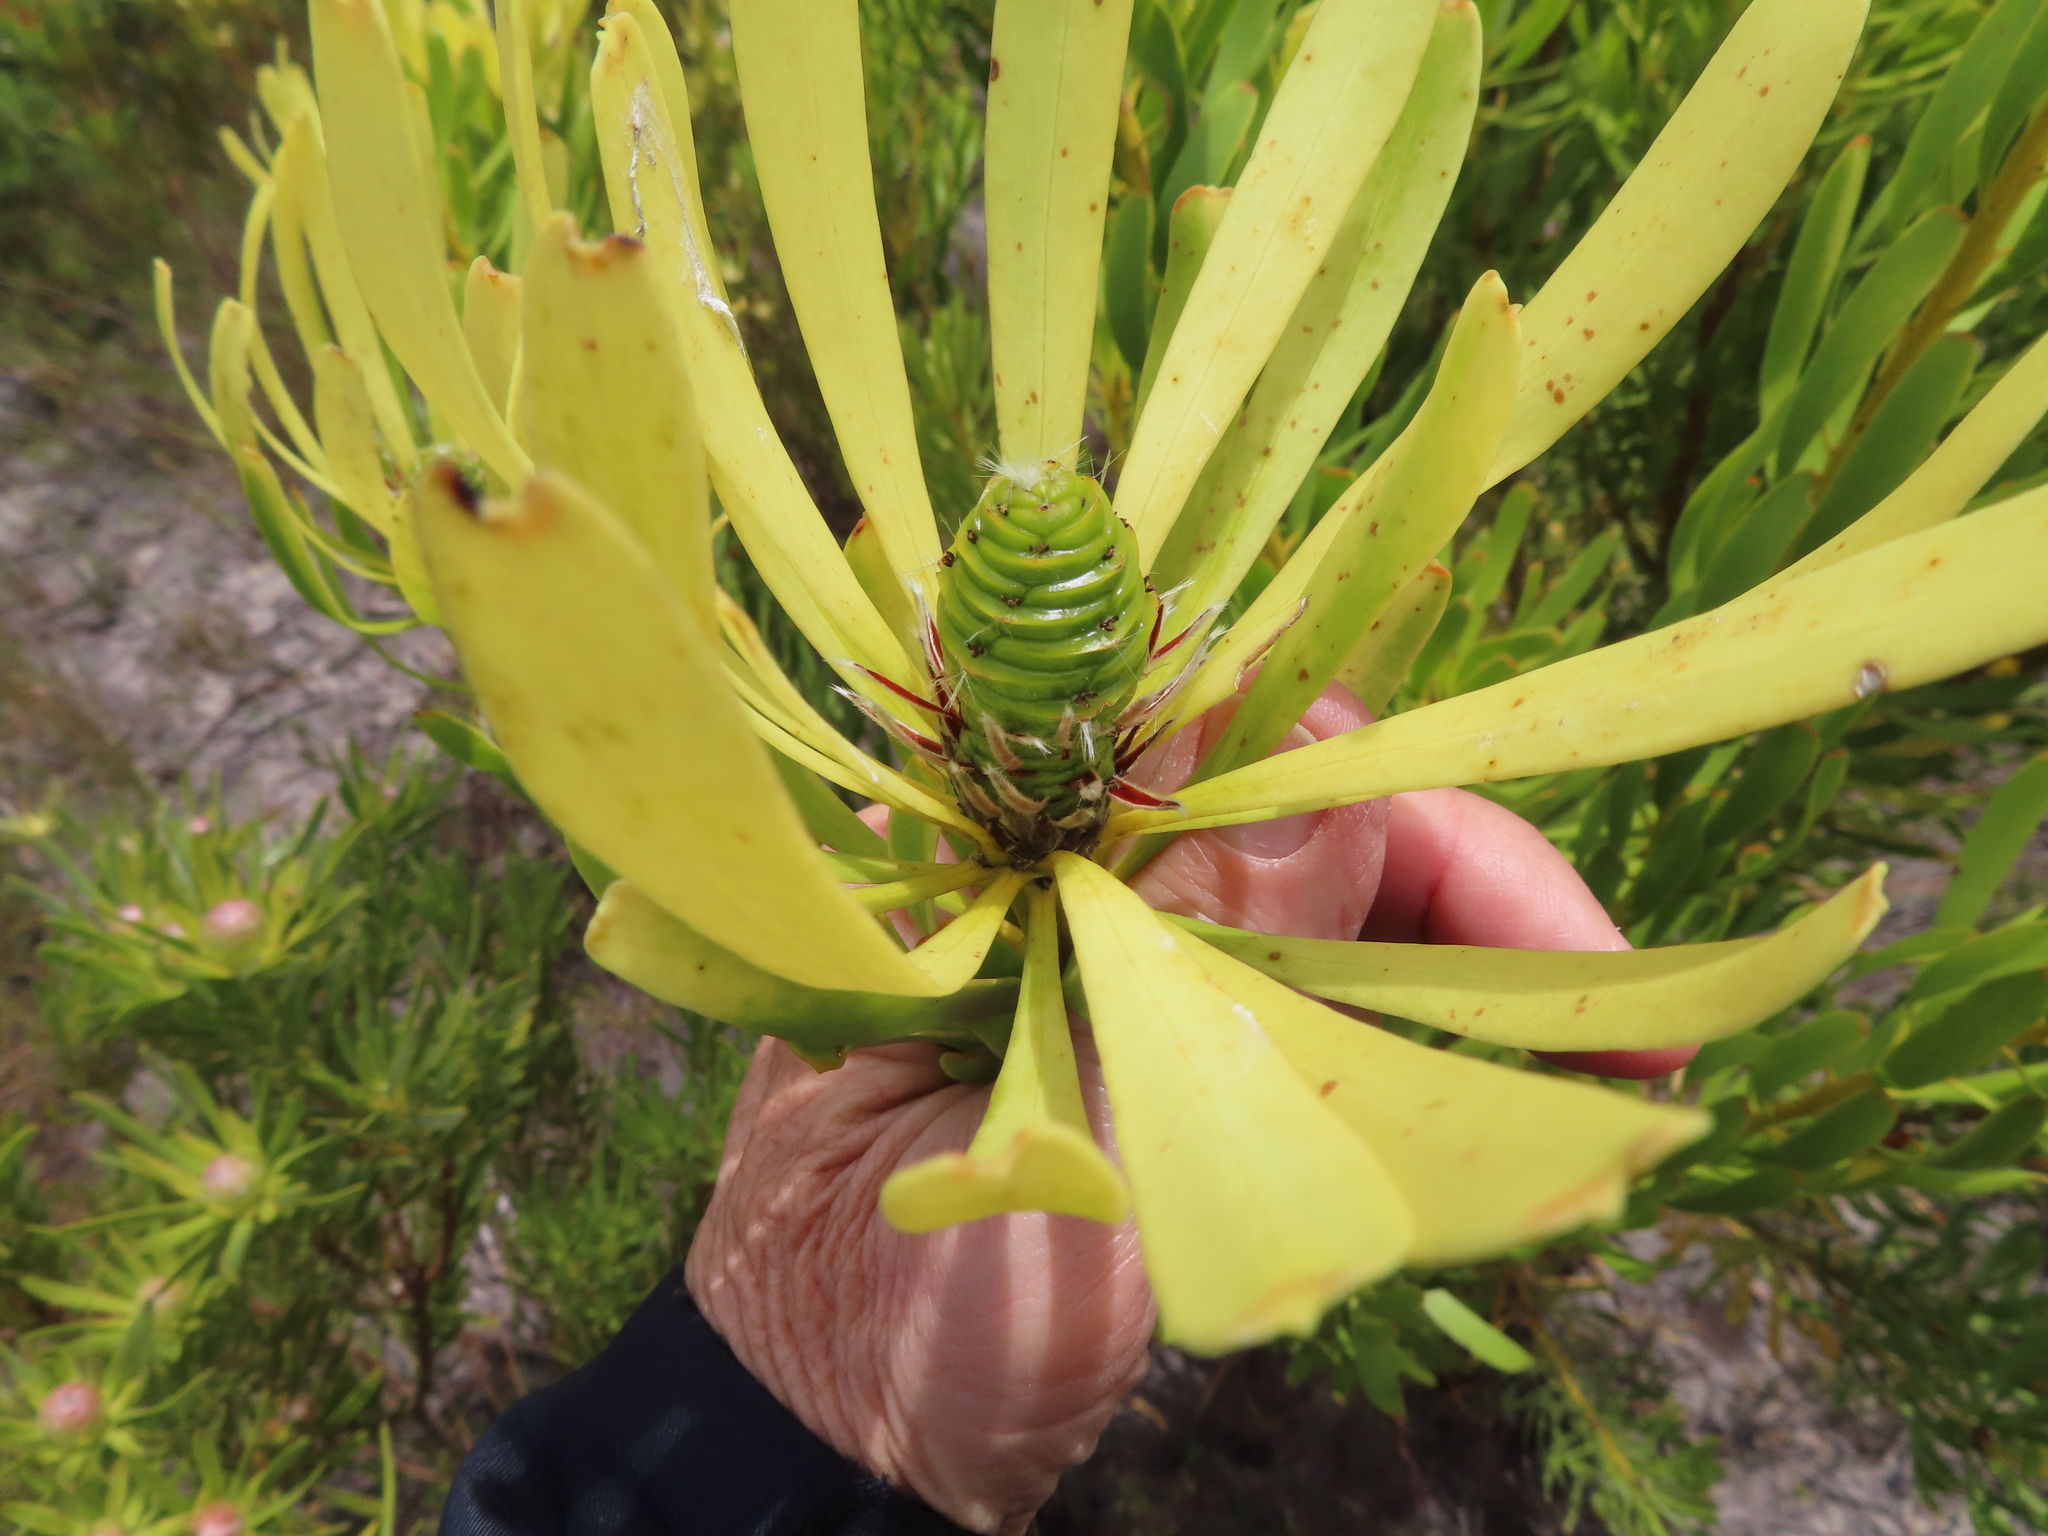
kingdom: Plantae
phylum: Tracheophyta
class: Magnoliopsida
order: Proteales
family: Proteaceae
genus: Leucadendron
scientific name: Leucadendron platyspermum
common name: Plate-seed conebush
